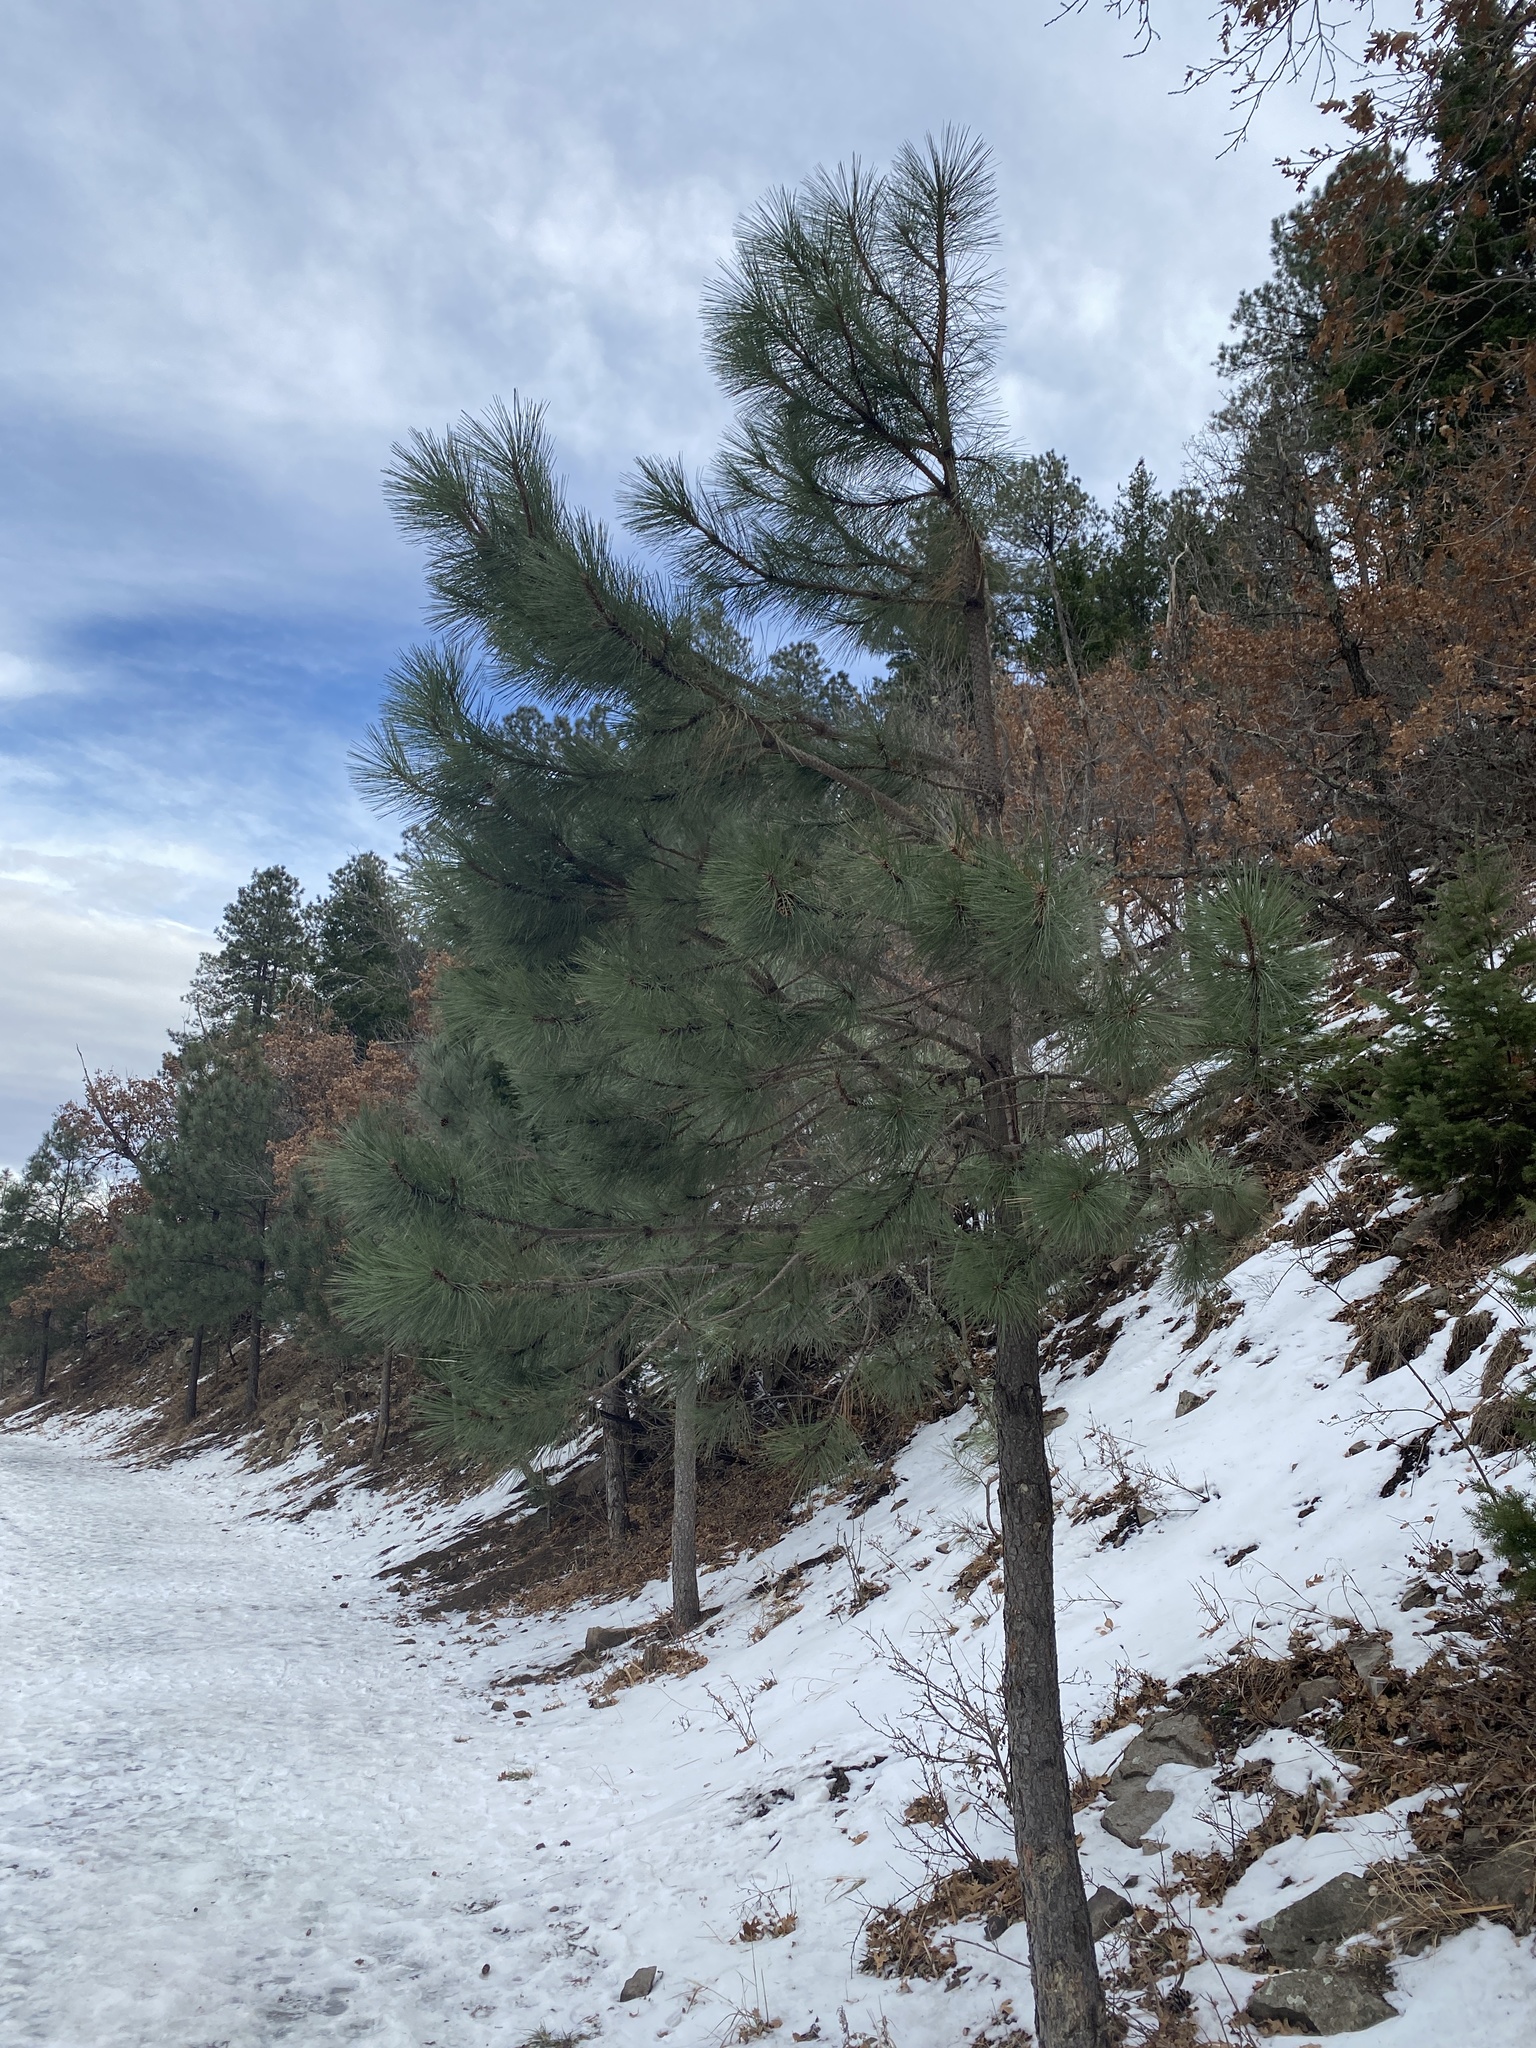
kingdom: Plantae
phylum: Tracheophyta
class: Pinopsida
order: Pinales
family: Pinaceae
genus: Pinus
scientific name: Pinus ponderosa
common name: Western yellow-pine
